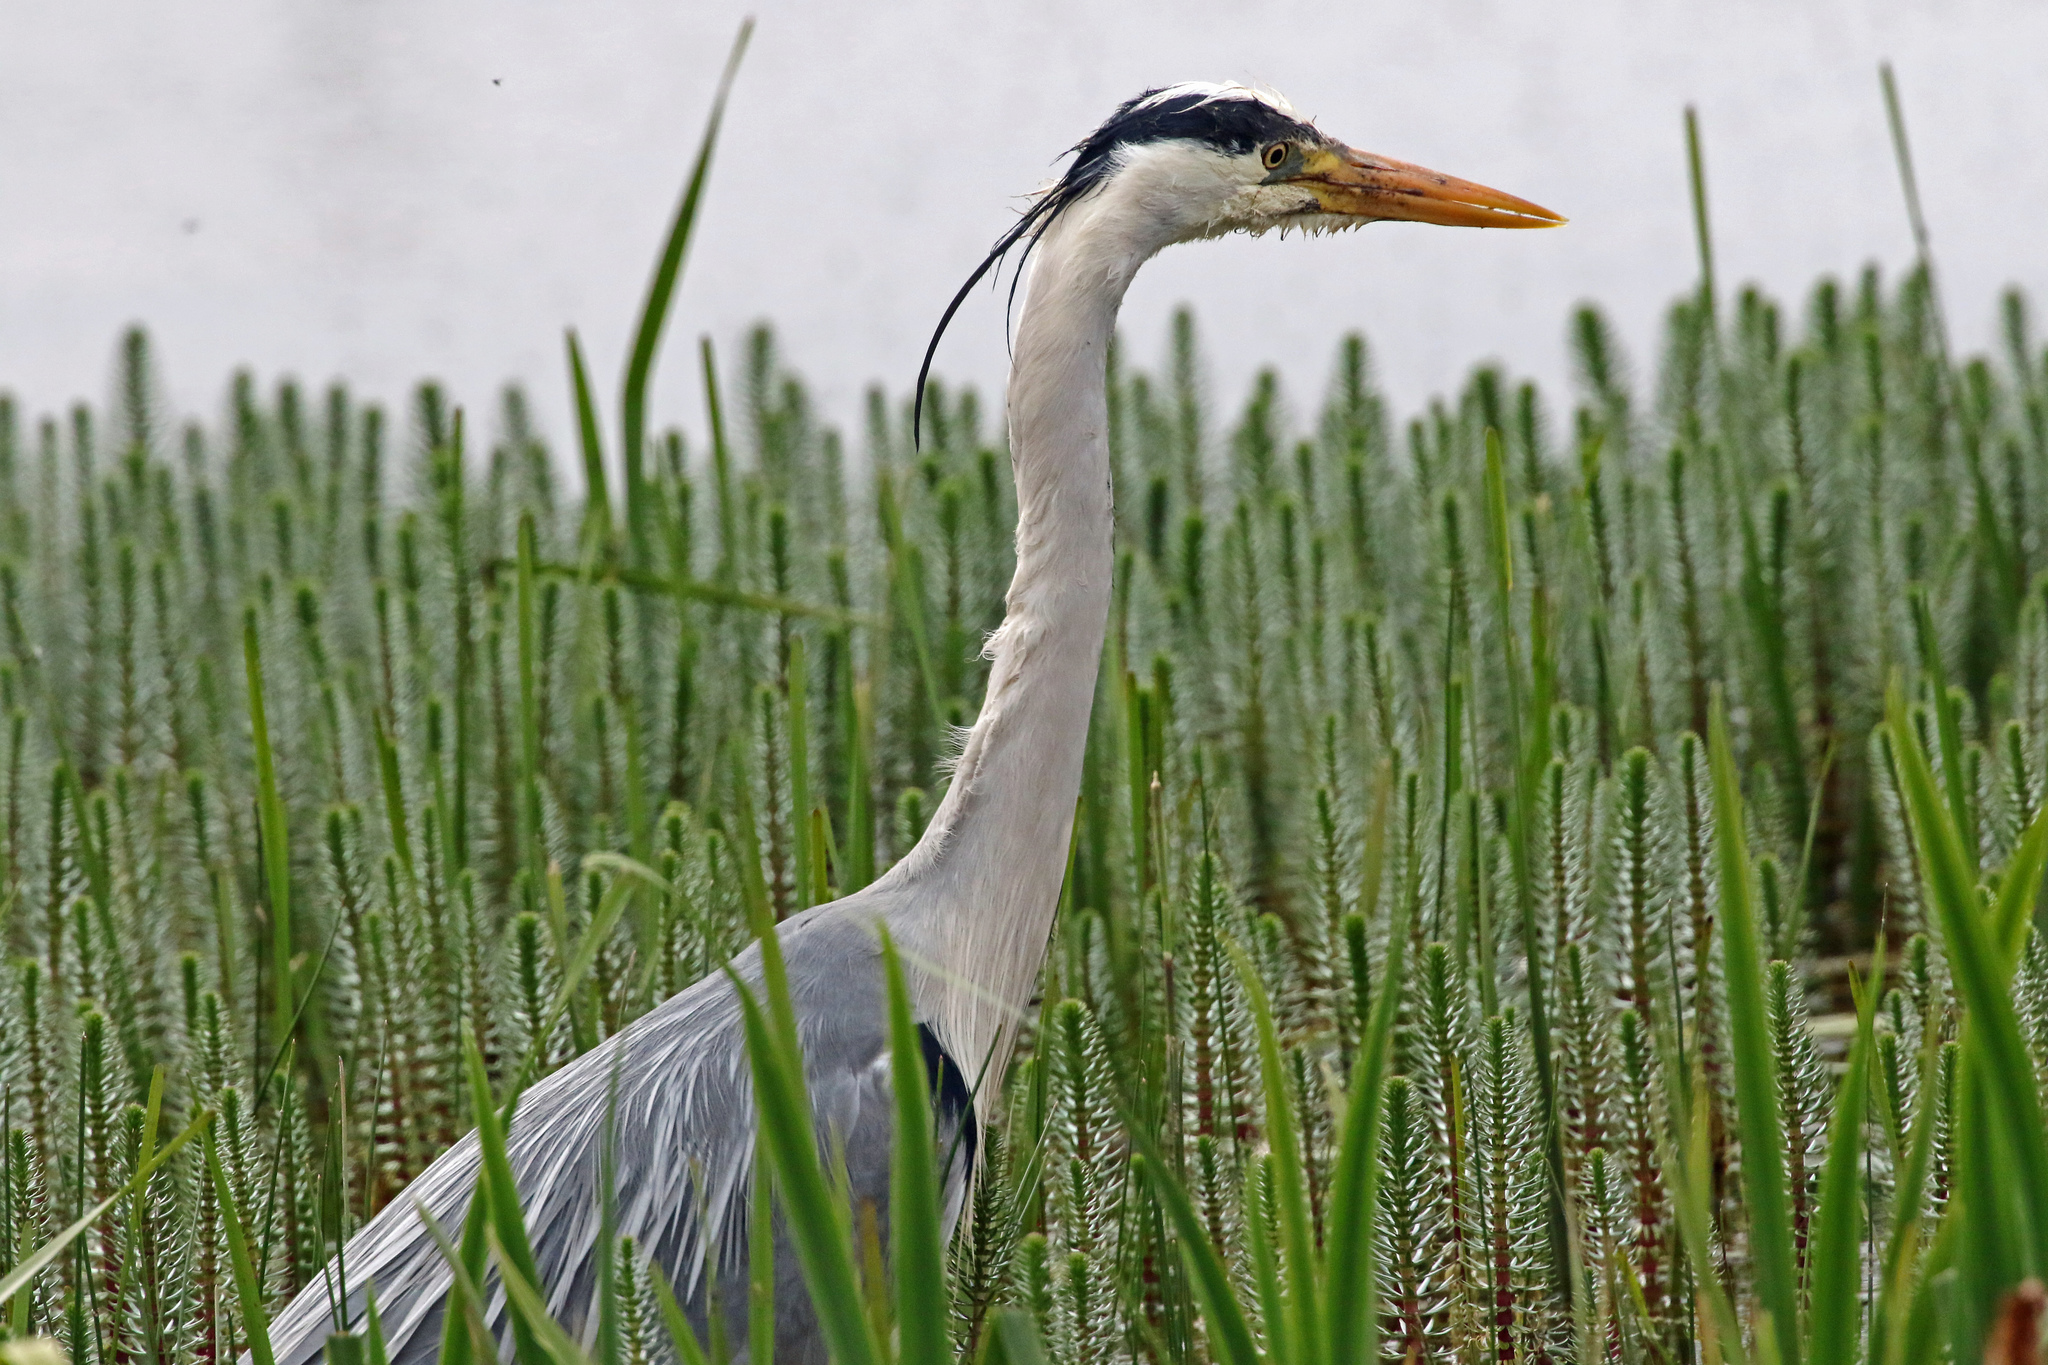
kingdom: Animalia
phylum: Chordata
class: Aves
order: Pelecaniformes
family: Ardeidae
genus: Ardea
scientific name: Ardea cinerea
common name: Grey heron
